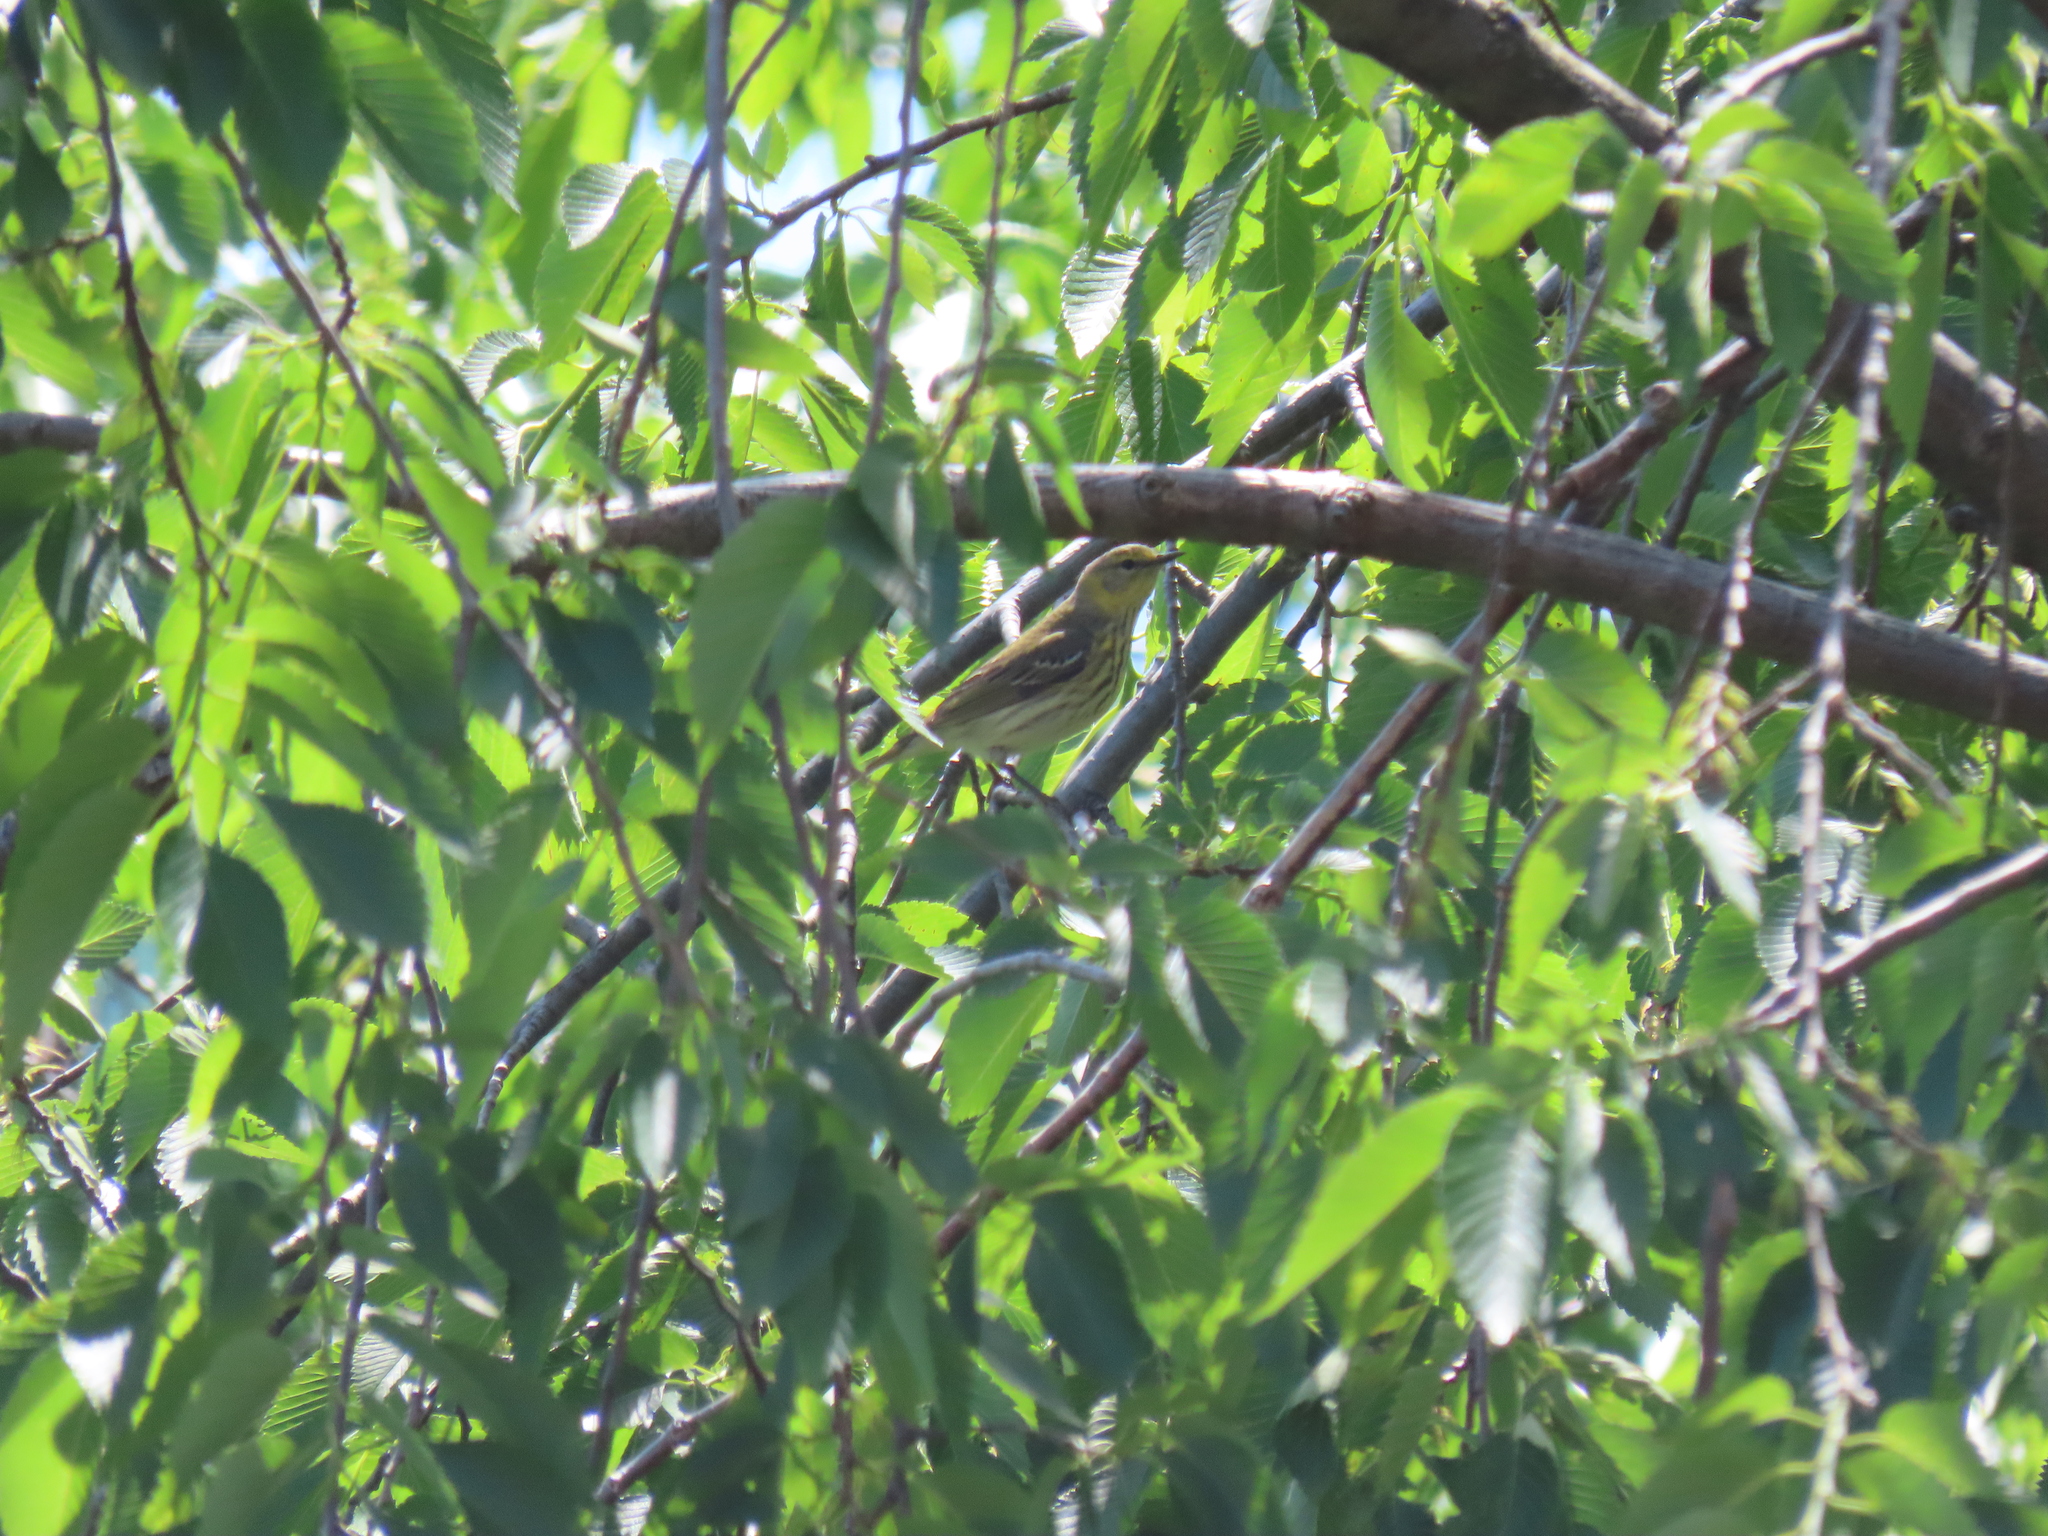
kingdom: Animalia
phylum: Chordata
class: Aves
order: Passeriformes
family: Parulidae
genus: Setophaga
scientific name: Setophaga tigrina
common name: Cape may warbler
